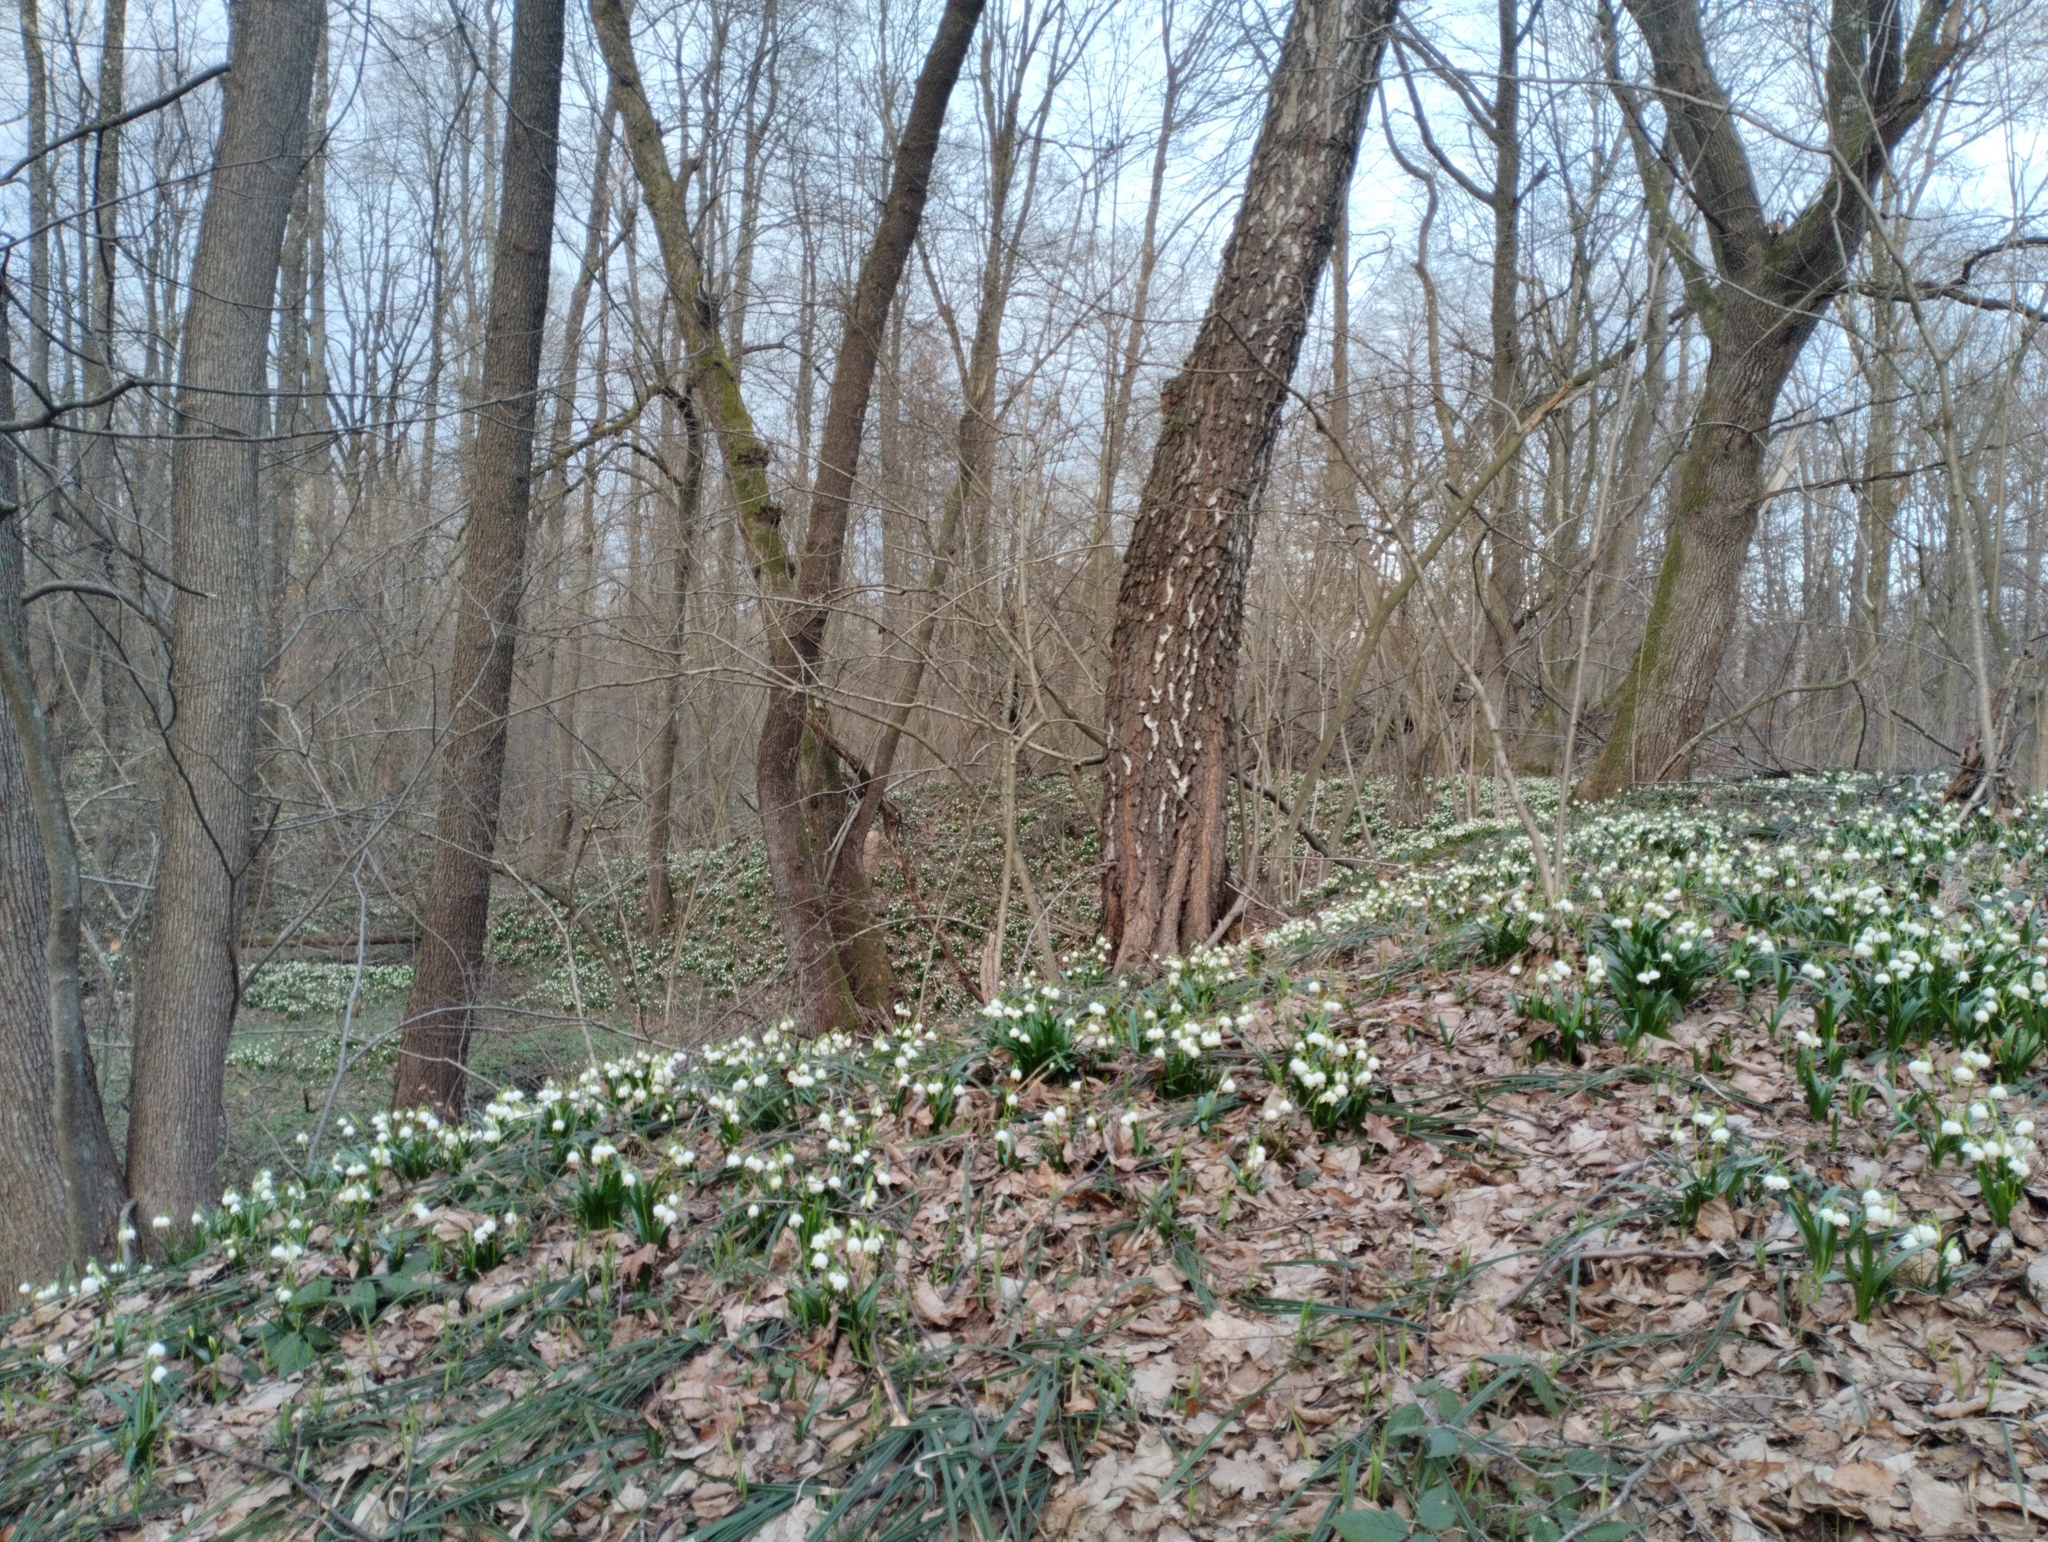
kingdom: Plantae
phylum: Tracheophyta
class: Liliopsida
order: Asparagales
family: Amaryllidaceae
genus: Leucojum
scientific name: Leucojum vernum
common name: Spring snowflake
